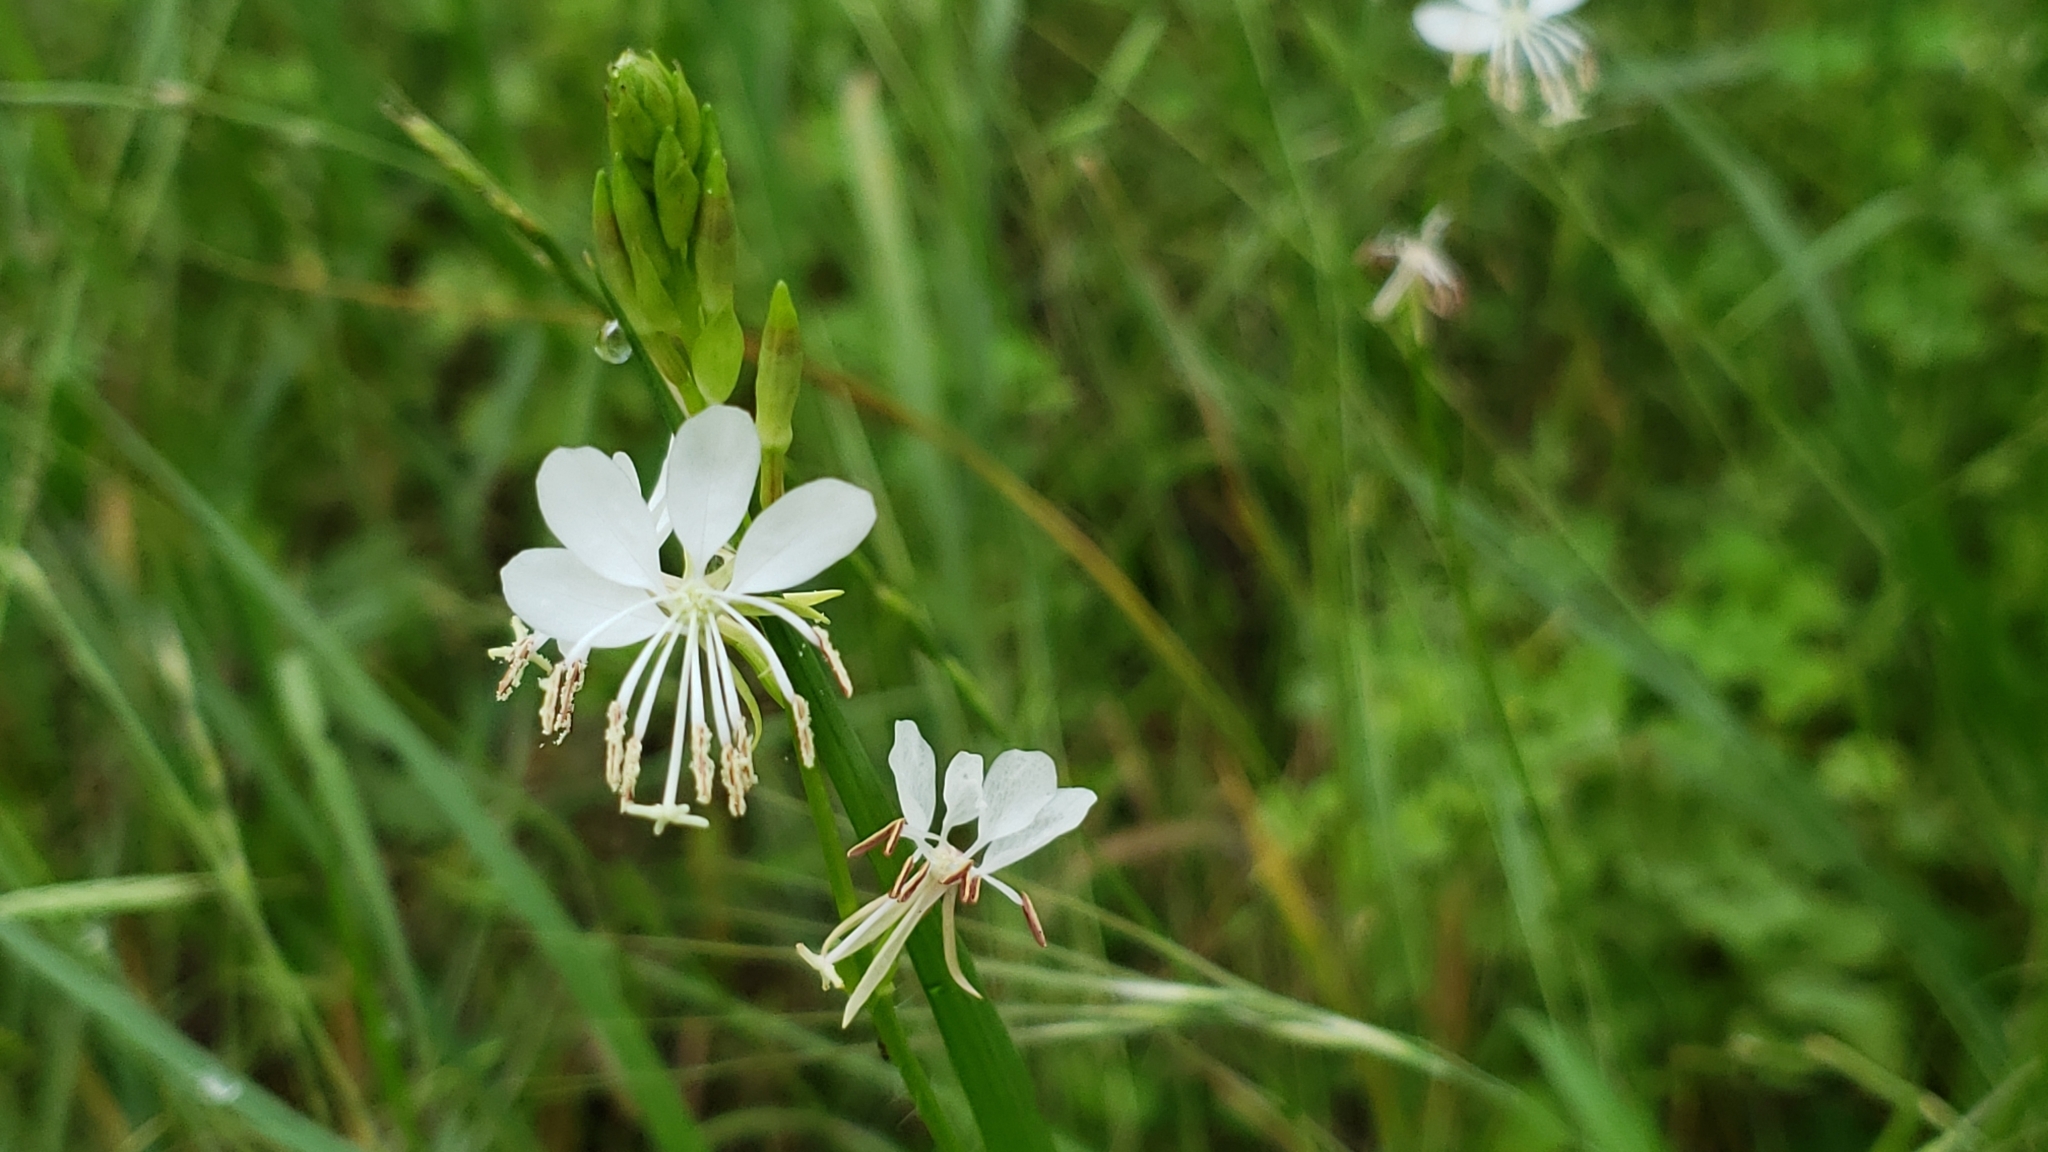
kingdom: Plantae
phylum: Tracheophyta
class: Magnoliopsida
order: Myrtales
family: Onagraceae
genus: Oenothera
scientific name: Oenothera lindheimeri
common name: Lindheimer's beeblossom
